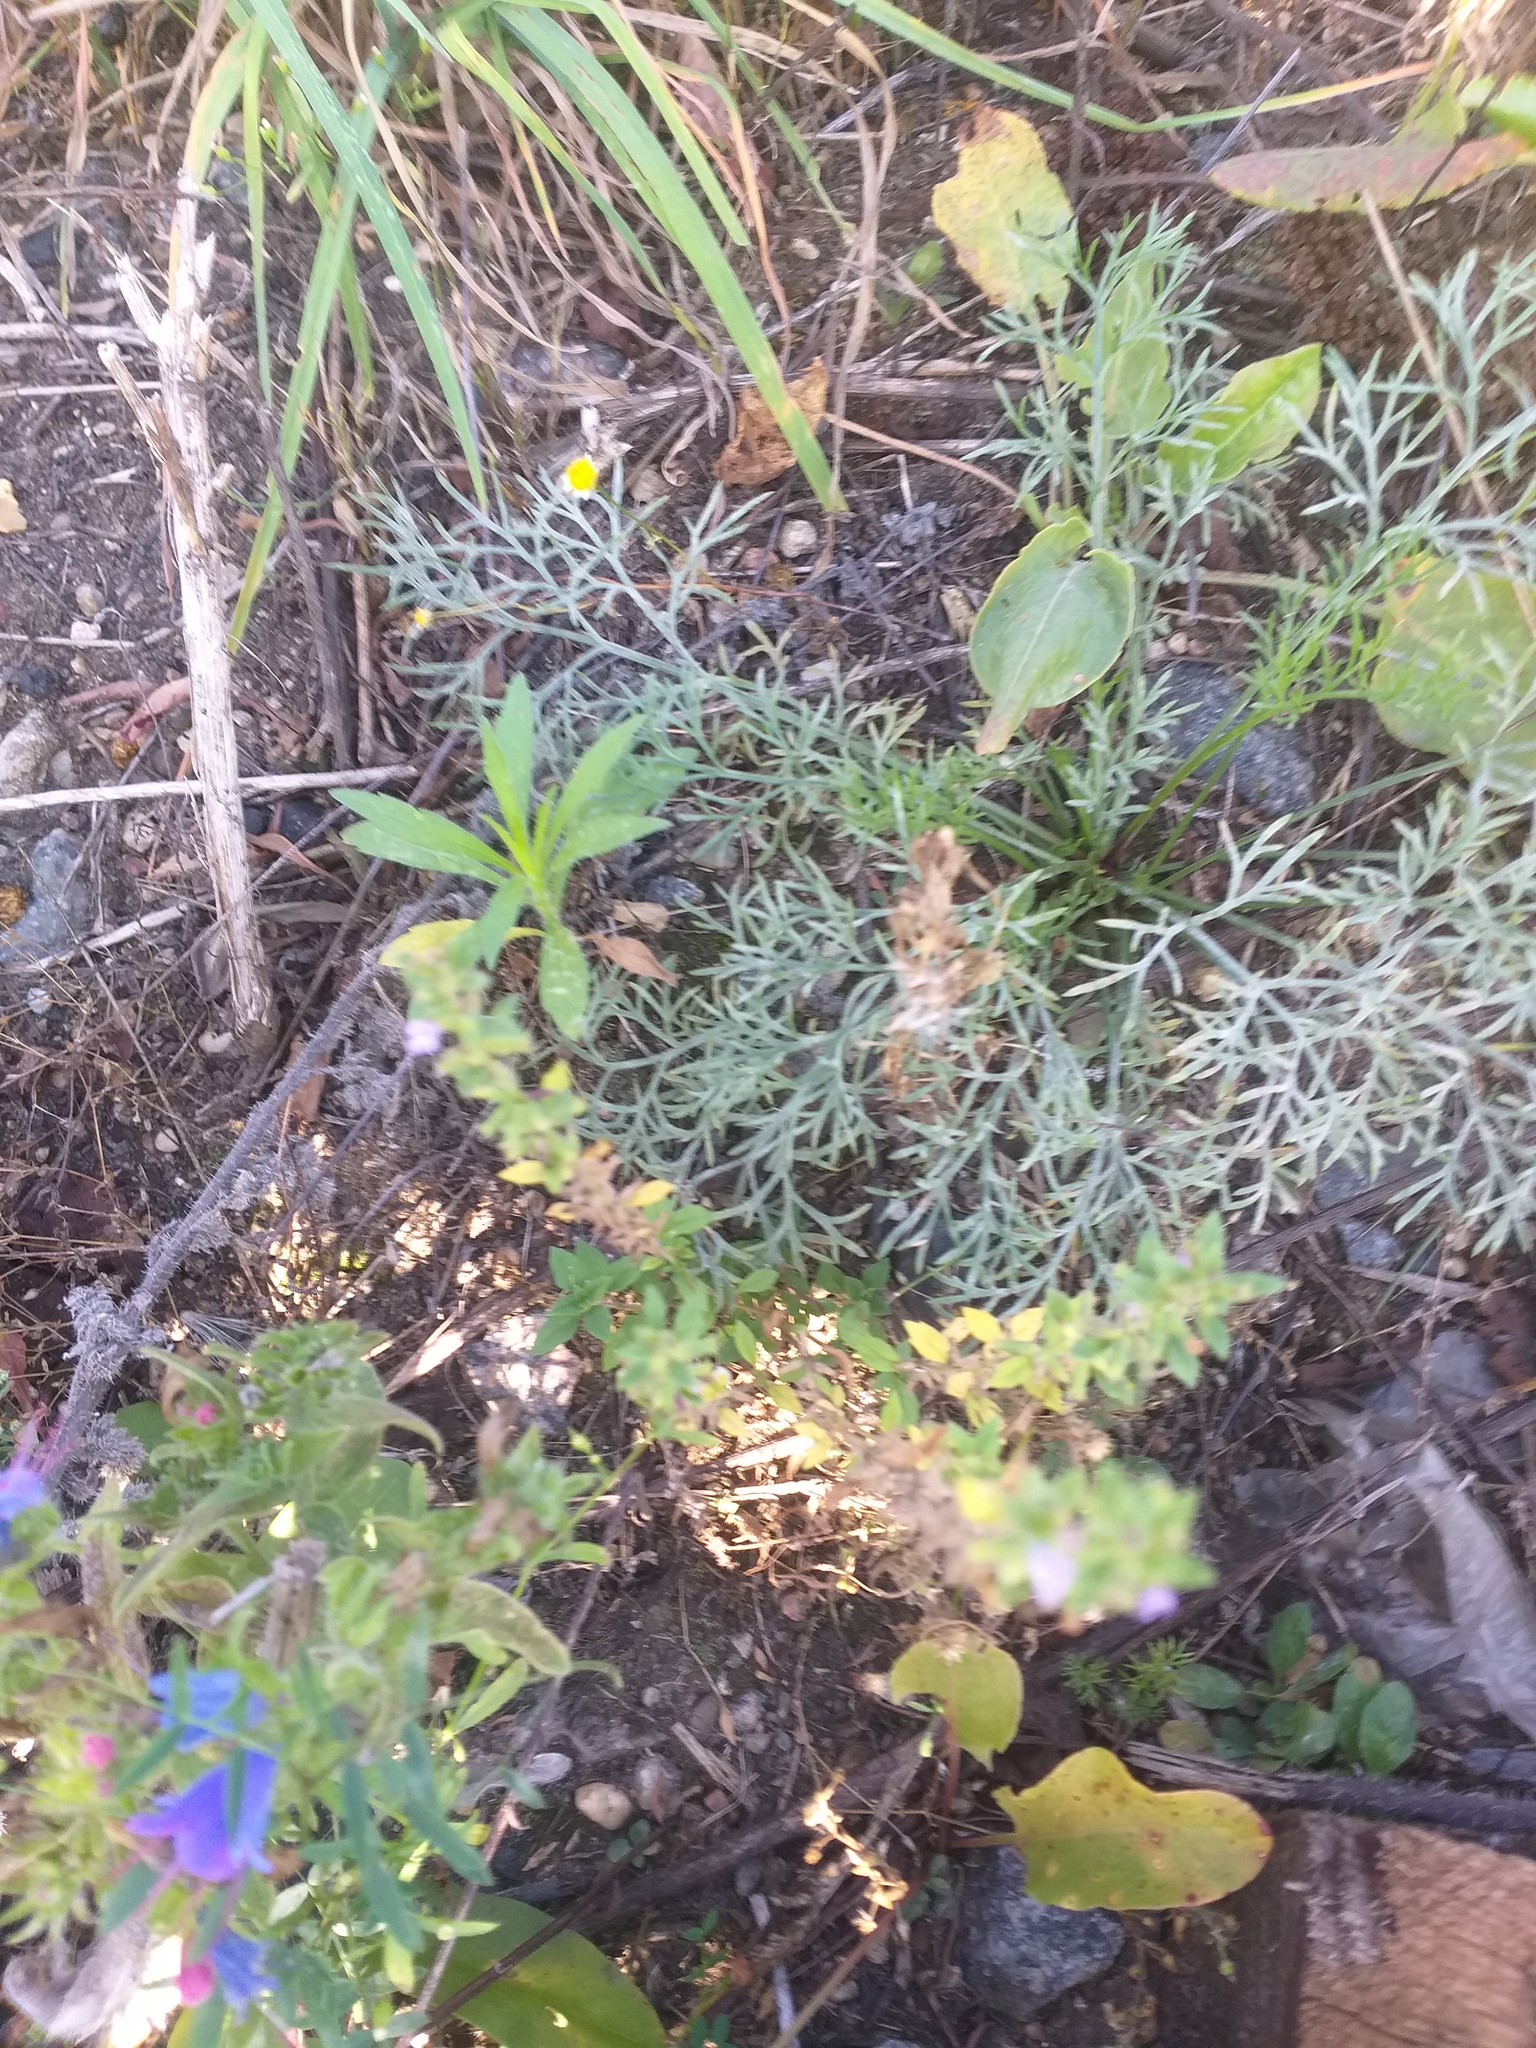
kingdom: Plantae
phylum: Tracheophyta
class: Magnoliopsida
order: Lamiales
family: Lamiaceae
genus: Clinopodium
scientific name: Clinopodium acinos
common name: Basil thyme
